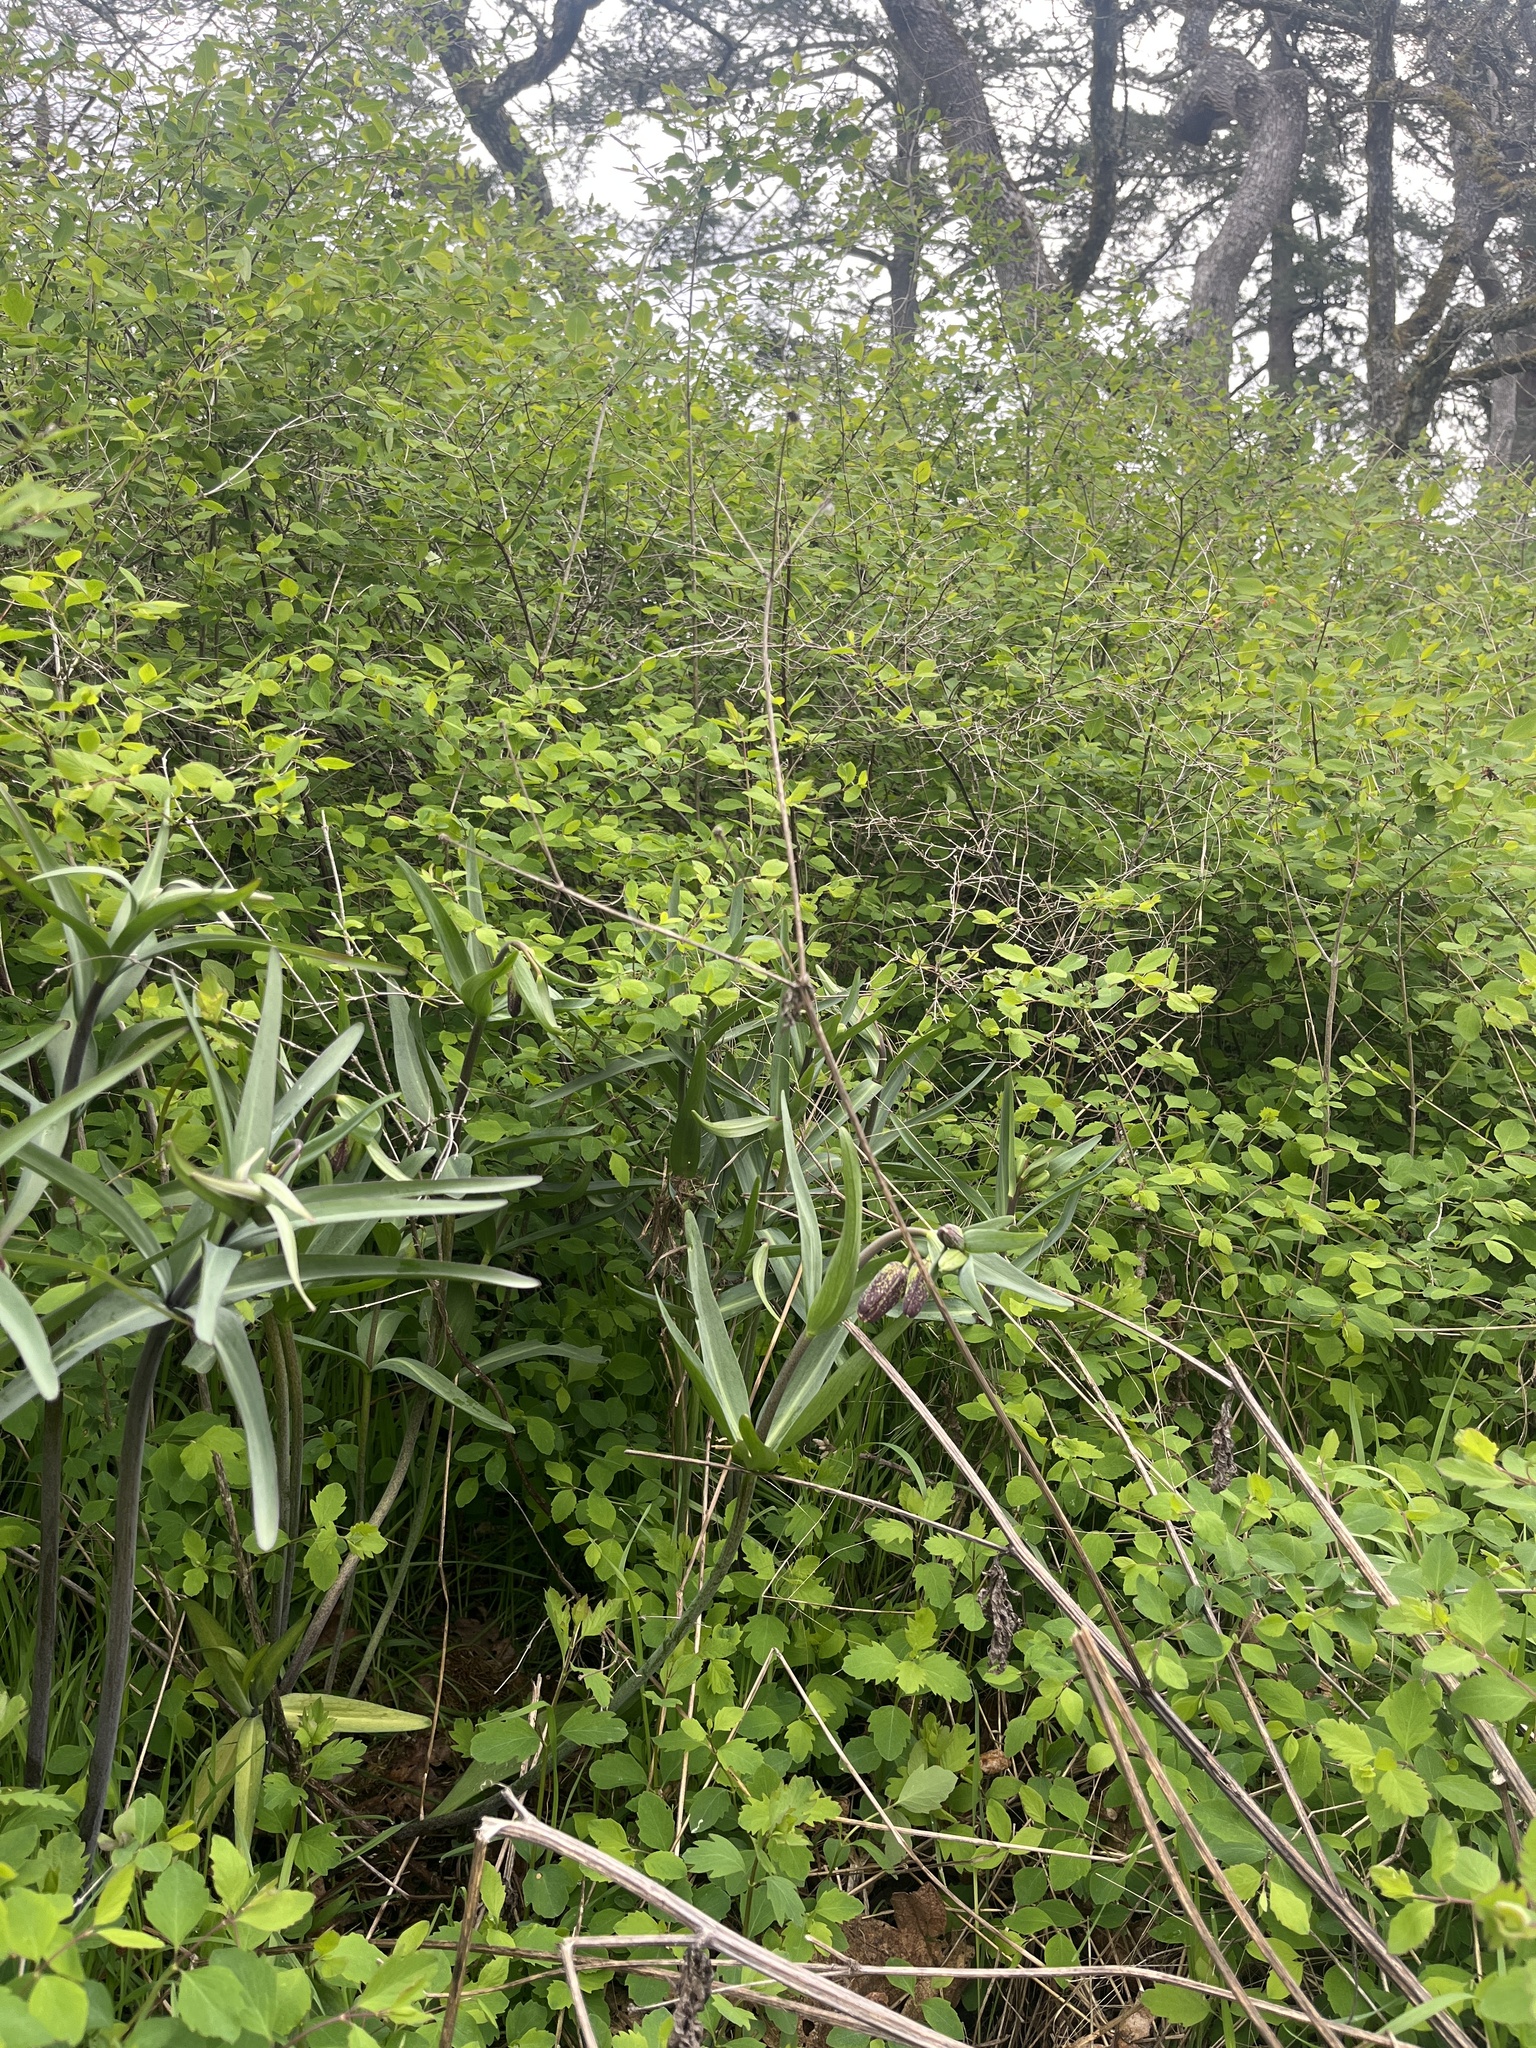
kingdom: Plantae
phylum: Tracheophyta
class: Liliopsida
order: Liliales
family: Liliaceae
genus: Fritillaria
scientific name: Fritillaria affinis
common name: Ojai fritillary
